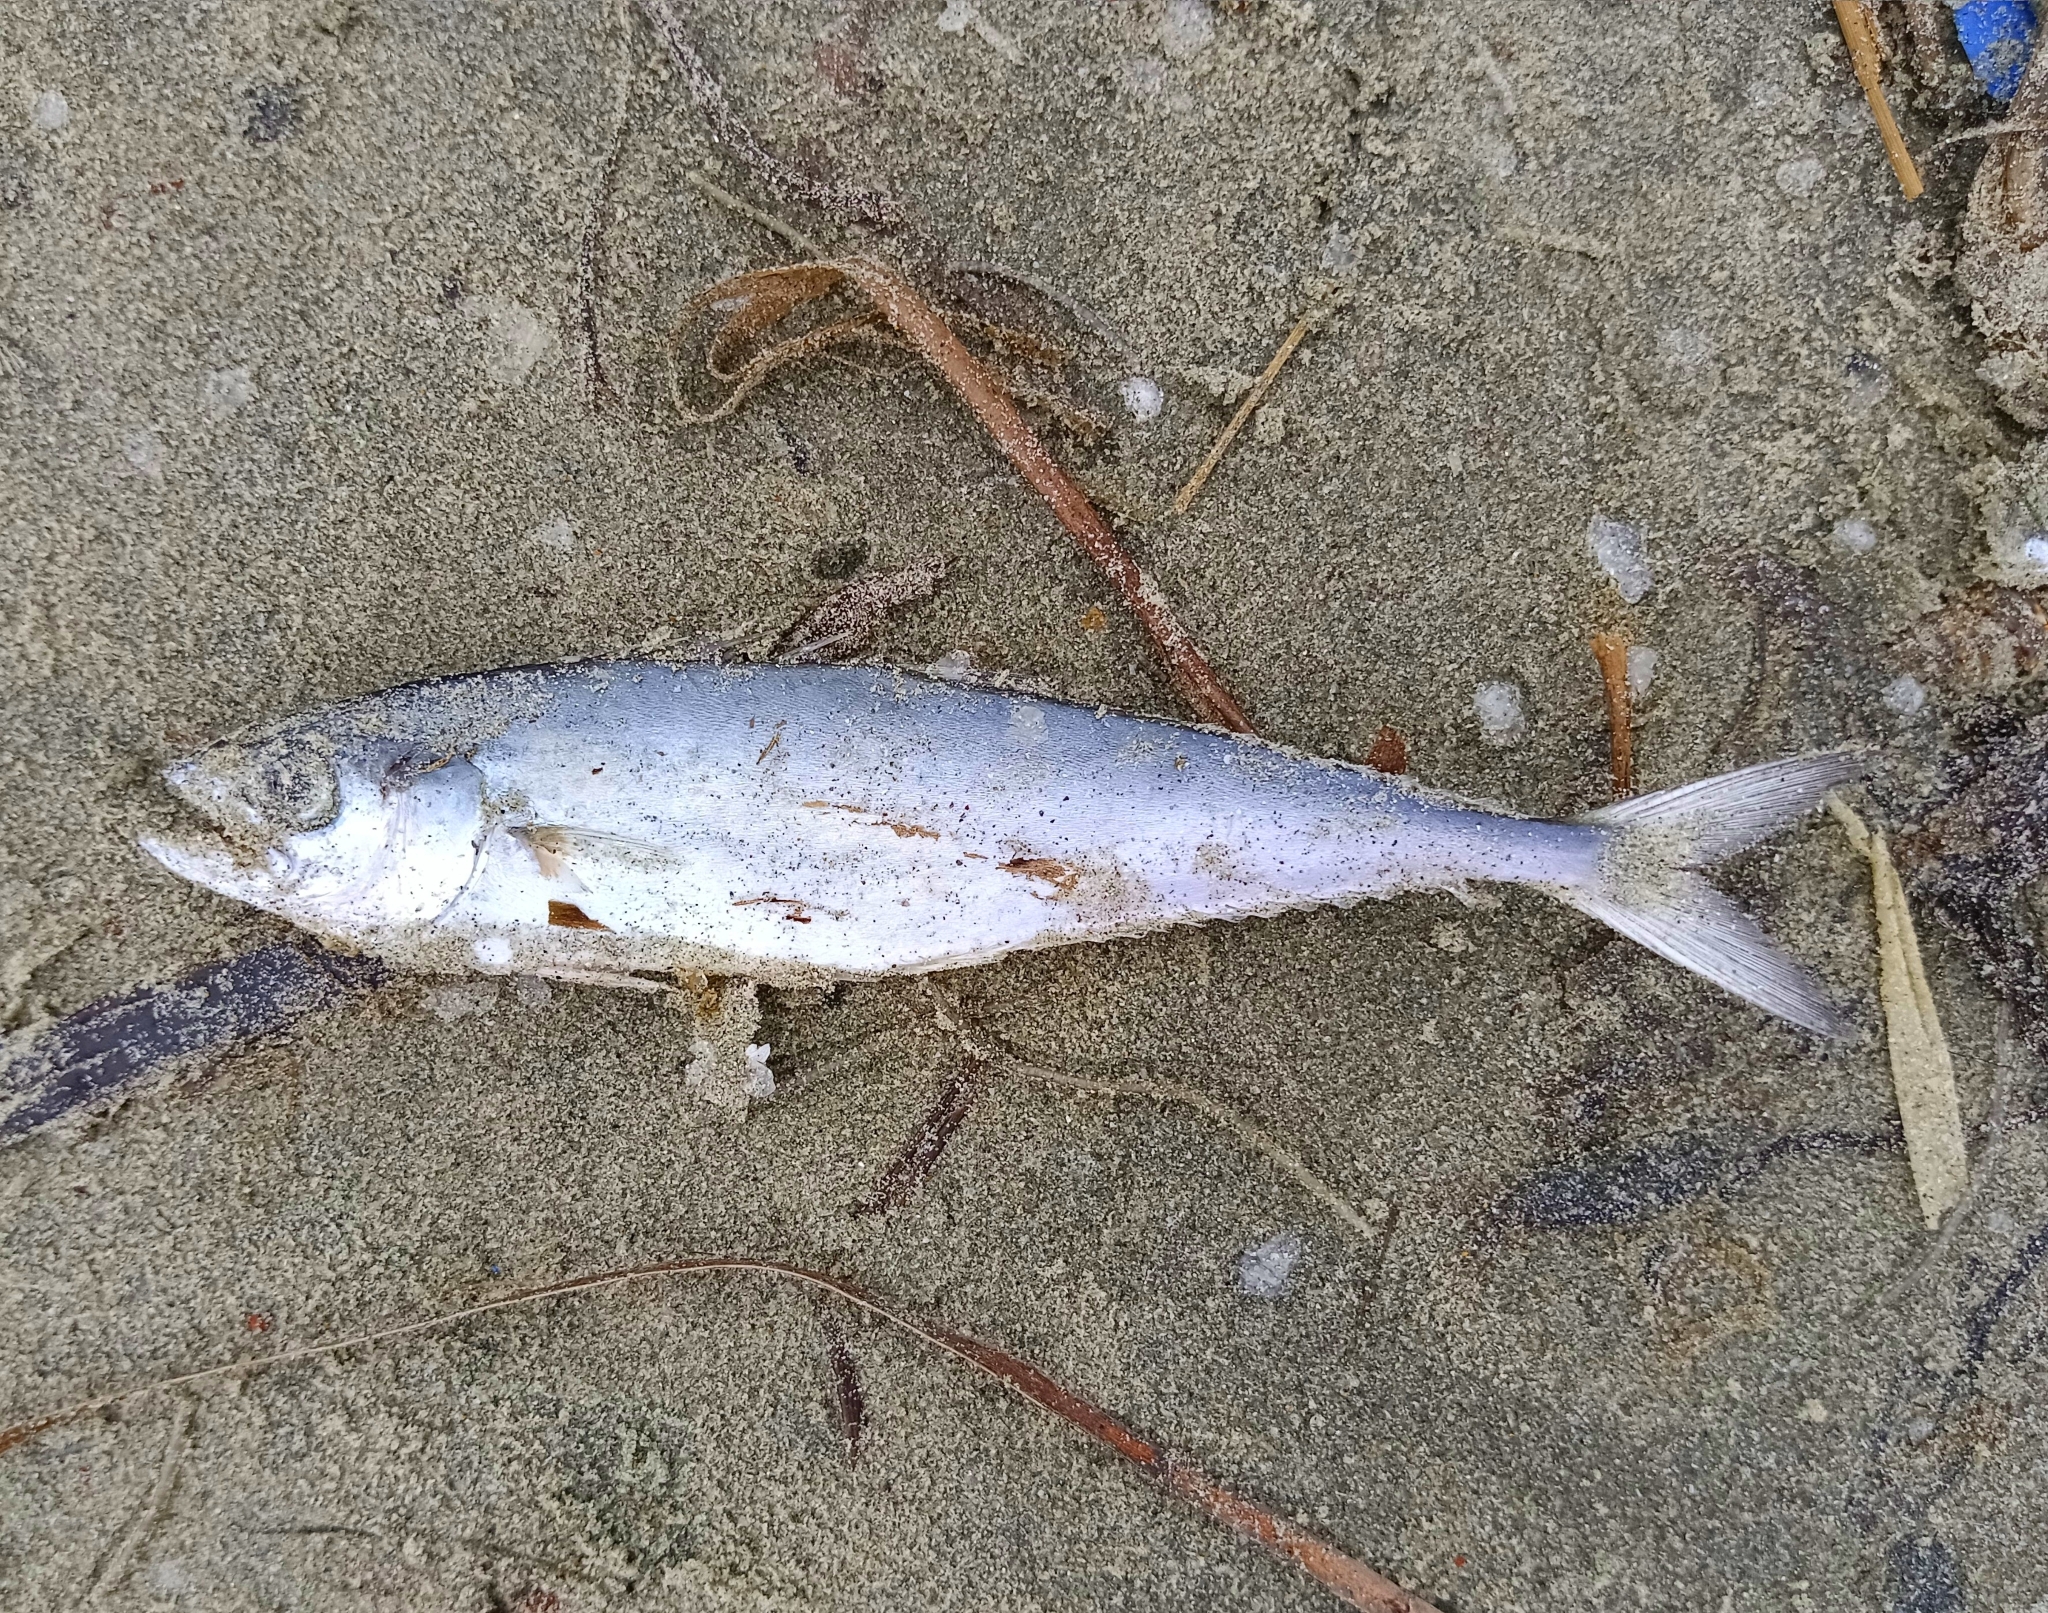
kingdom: Animalia
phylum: Chordata
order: Perciformes
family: Carangidae
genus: Scomberoides
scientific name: Scomberoides tol
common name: Needlescaled queenfish
